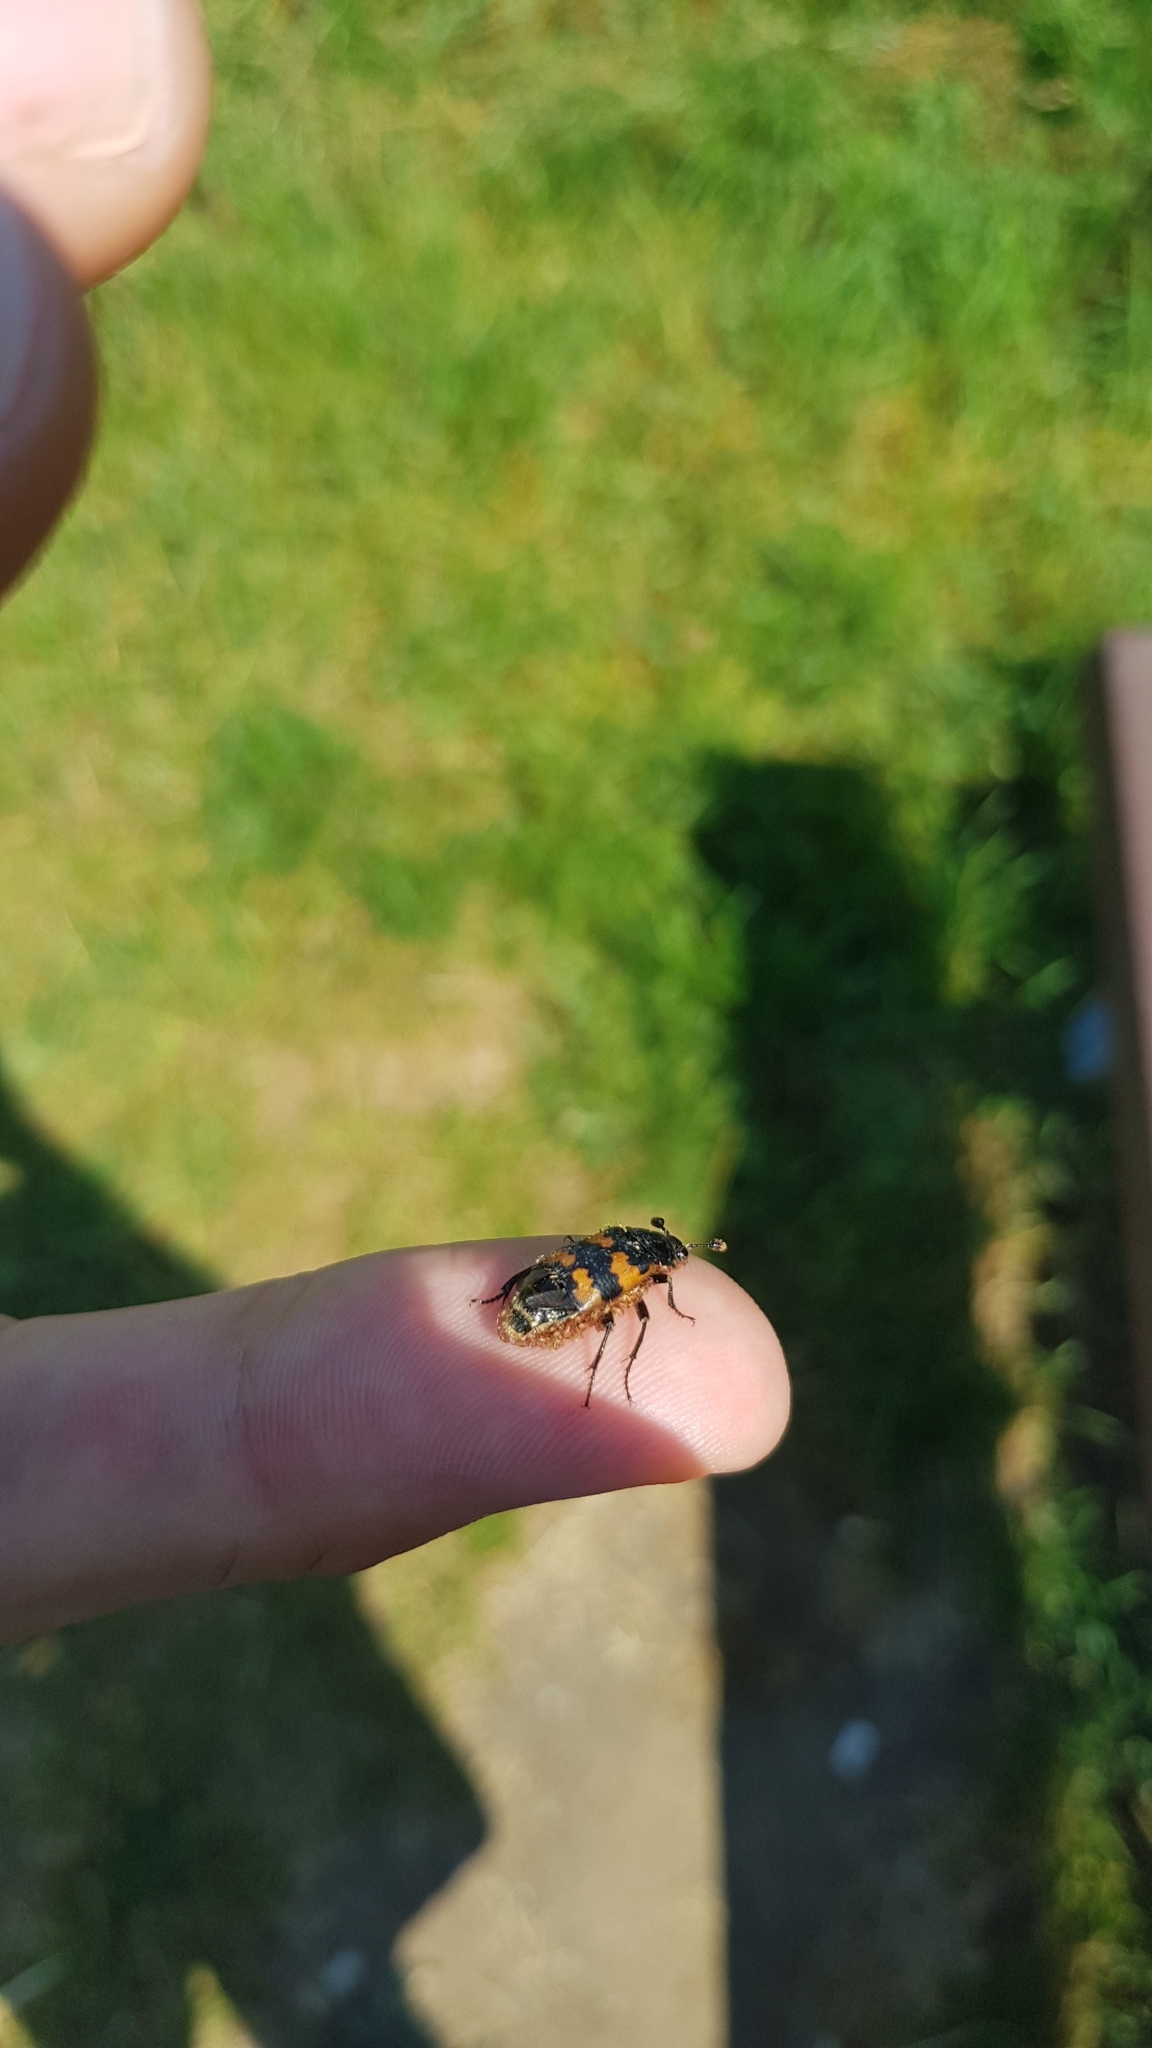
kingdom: Animalia
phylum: Arthropoda
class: Insecta
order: Coleoptera
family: Staphylinidae
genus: Nicrophorus
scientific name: Nicrophorus vespillo
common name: Common burying beetle
